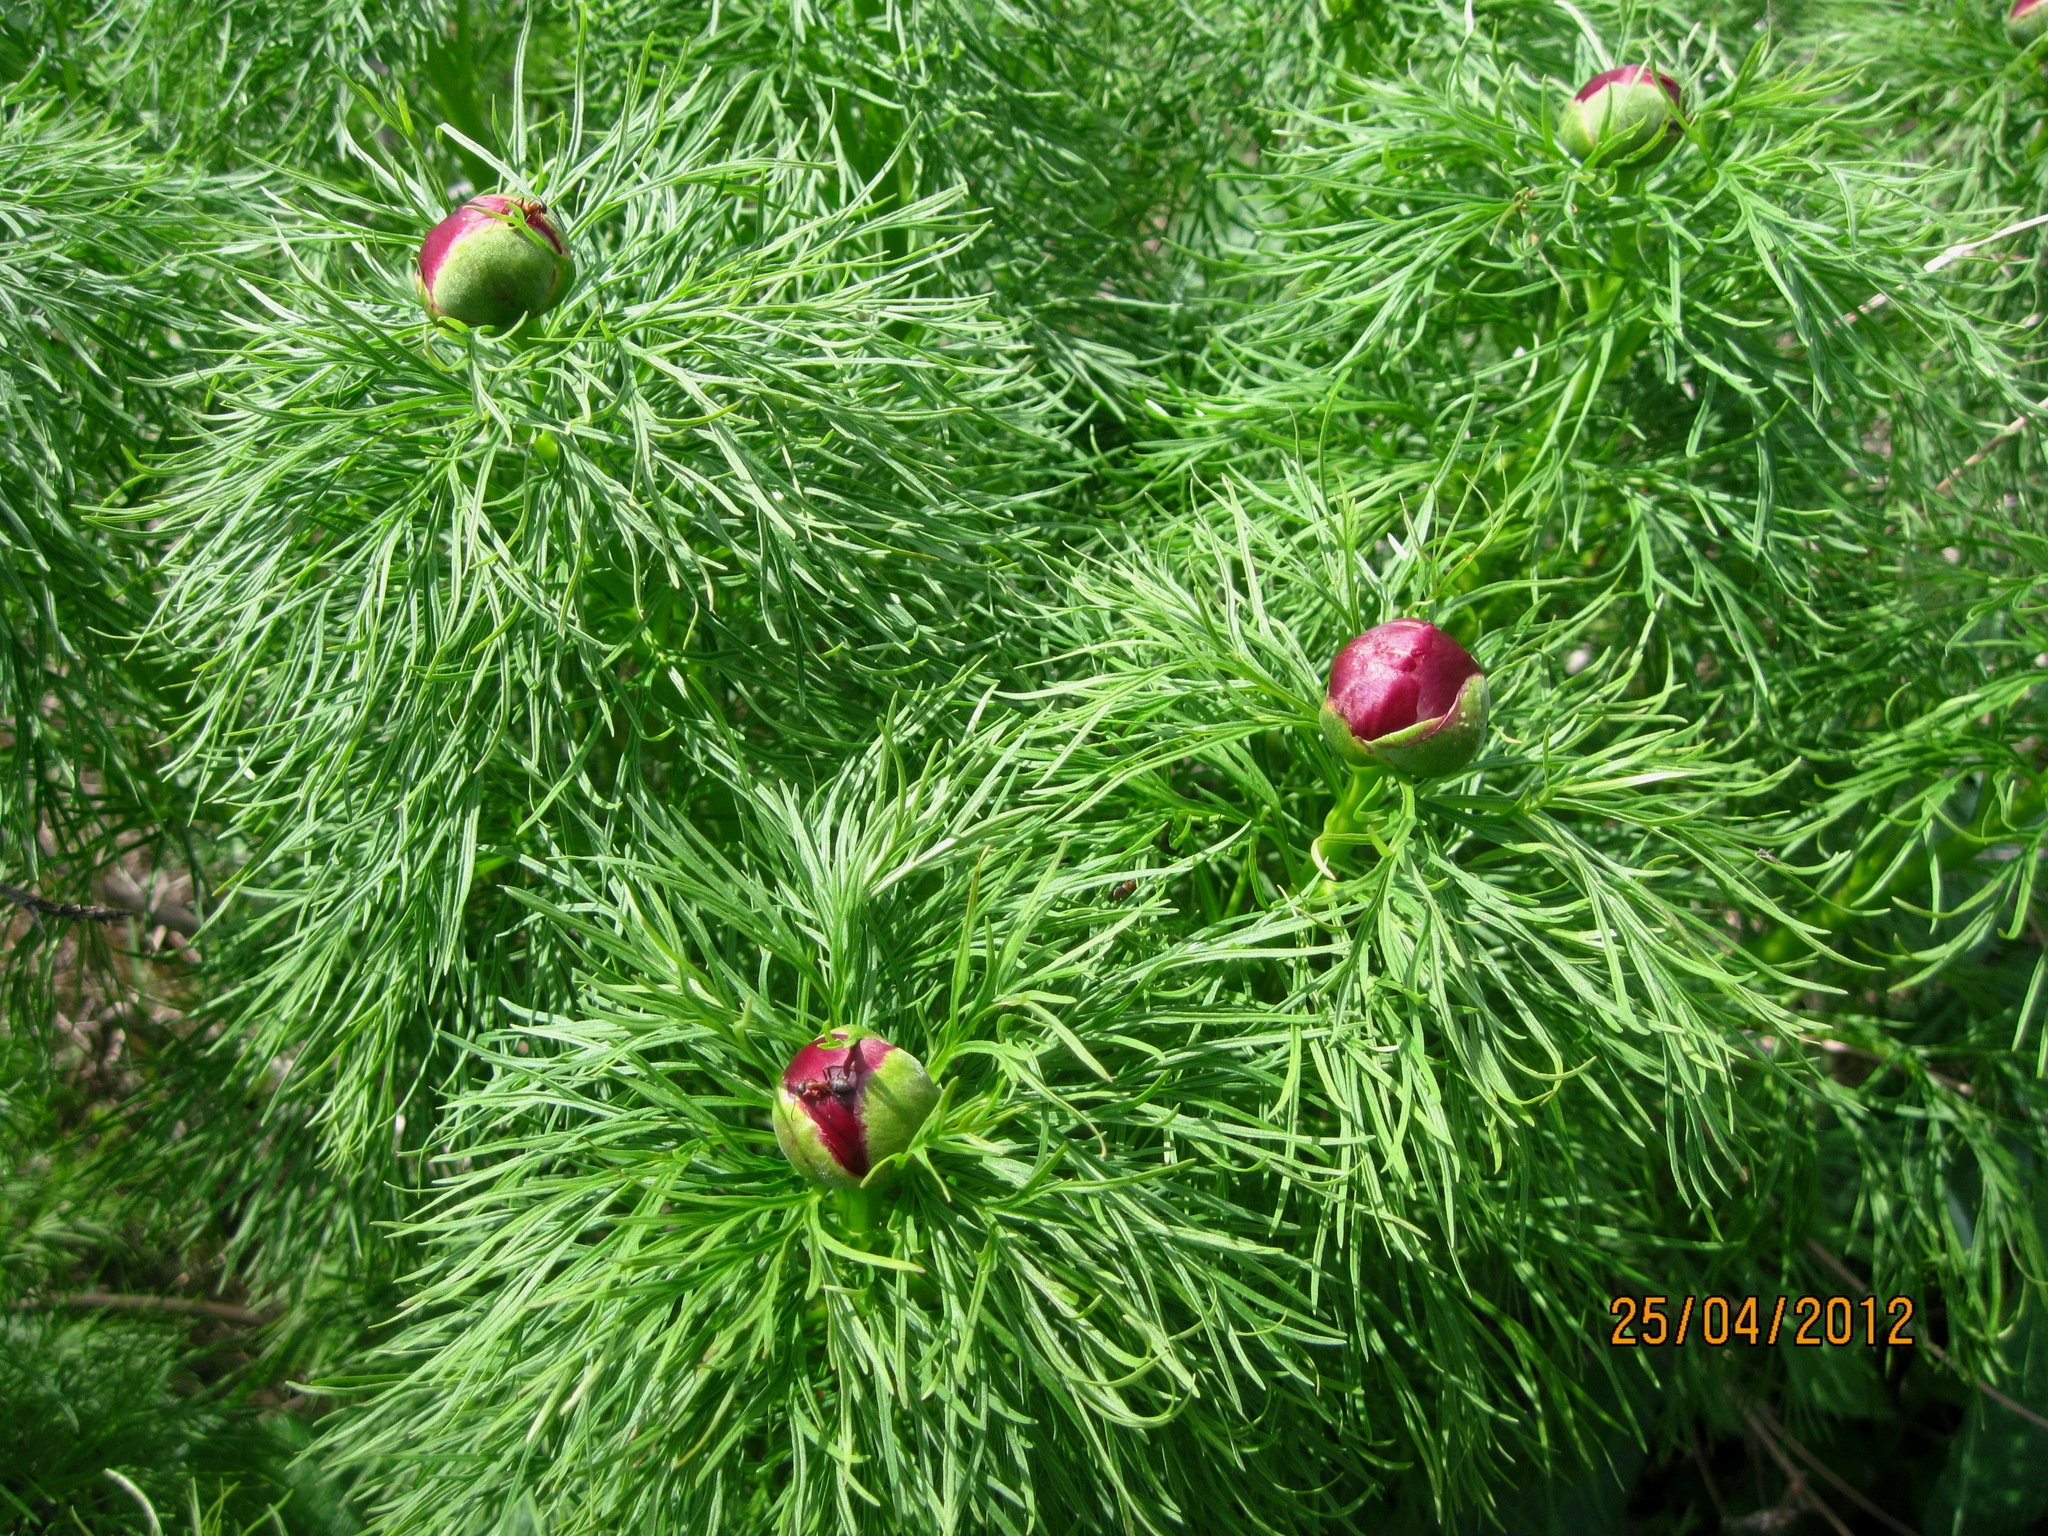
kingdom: Plantae
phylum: Tracheophyta
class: Magnoliopsida
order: Saxifragales
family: Paeoniaceae
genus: Paeonia
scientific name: Paeonia tenuifolia
